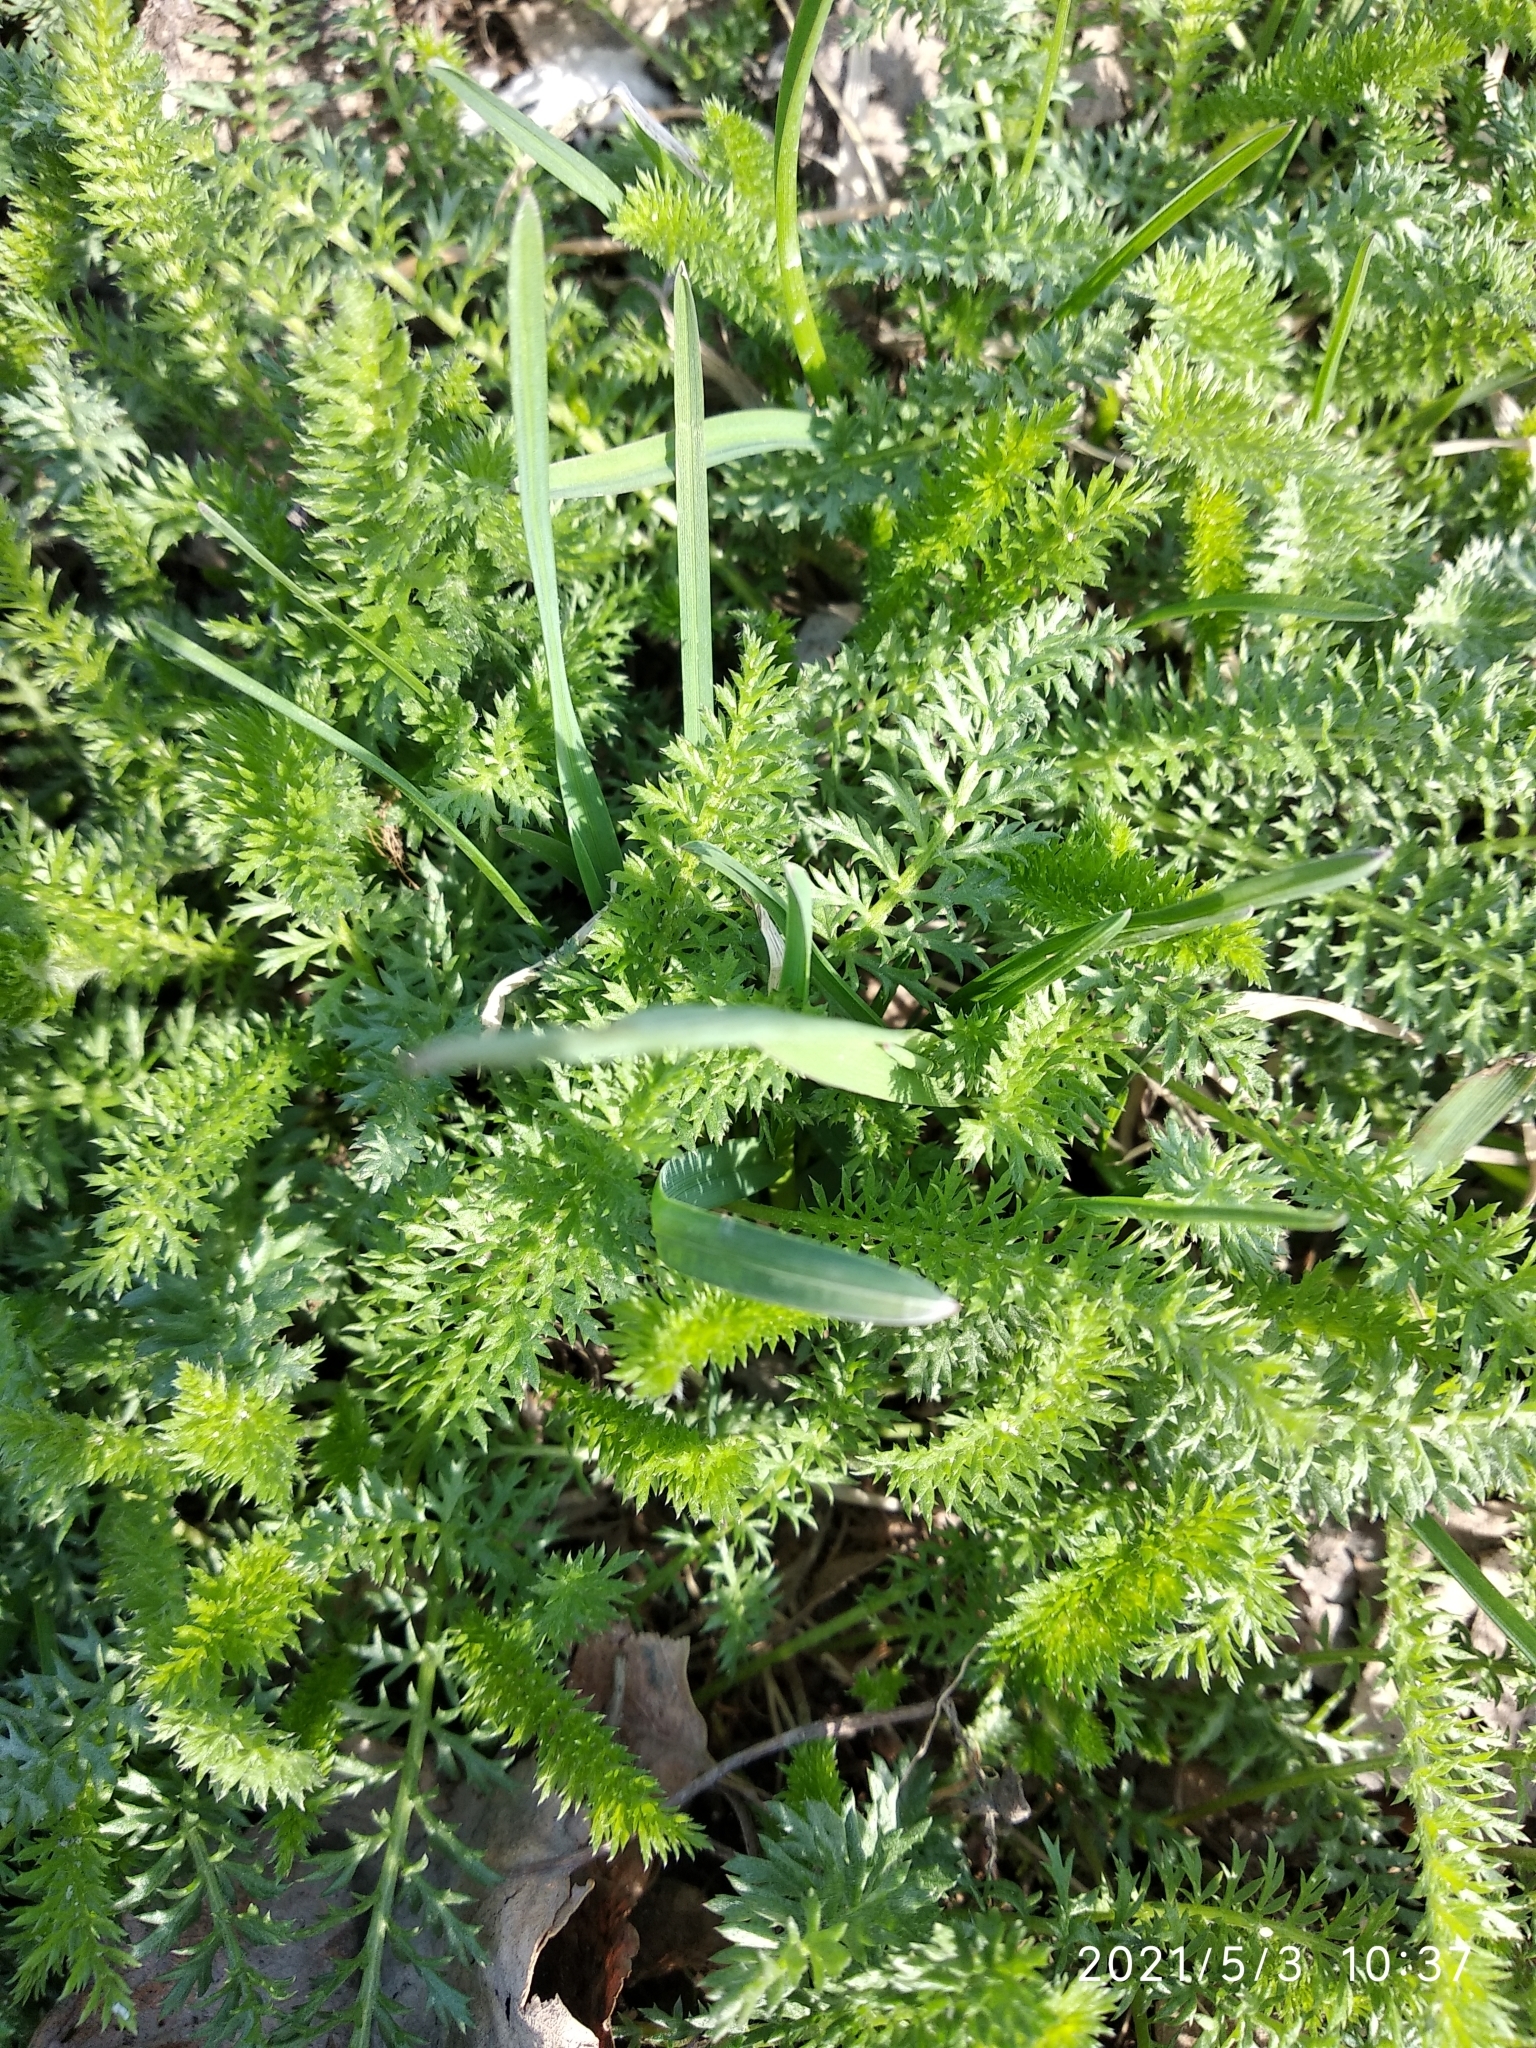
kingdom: Plantae
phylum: Tracheophyta
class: Magnoliopsida
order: Asterales
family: Asteraceae
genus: Achillea
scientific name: Achillea millefolium
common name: Yarrow
